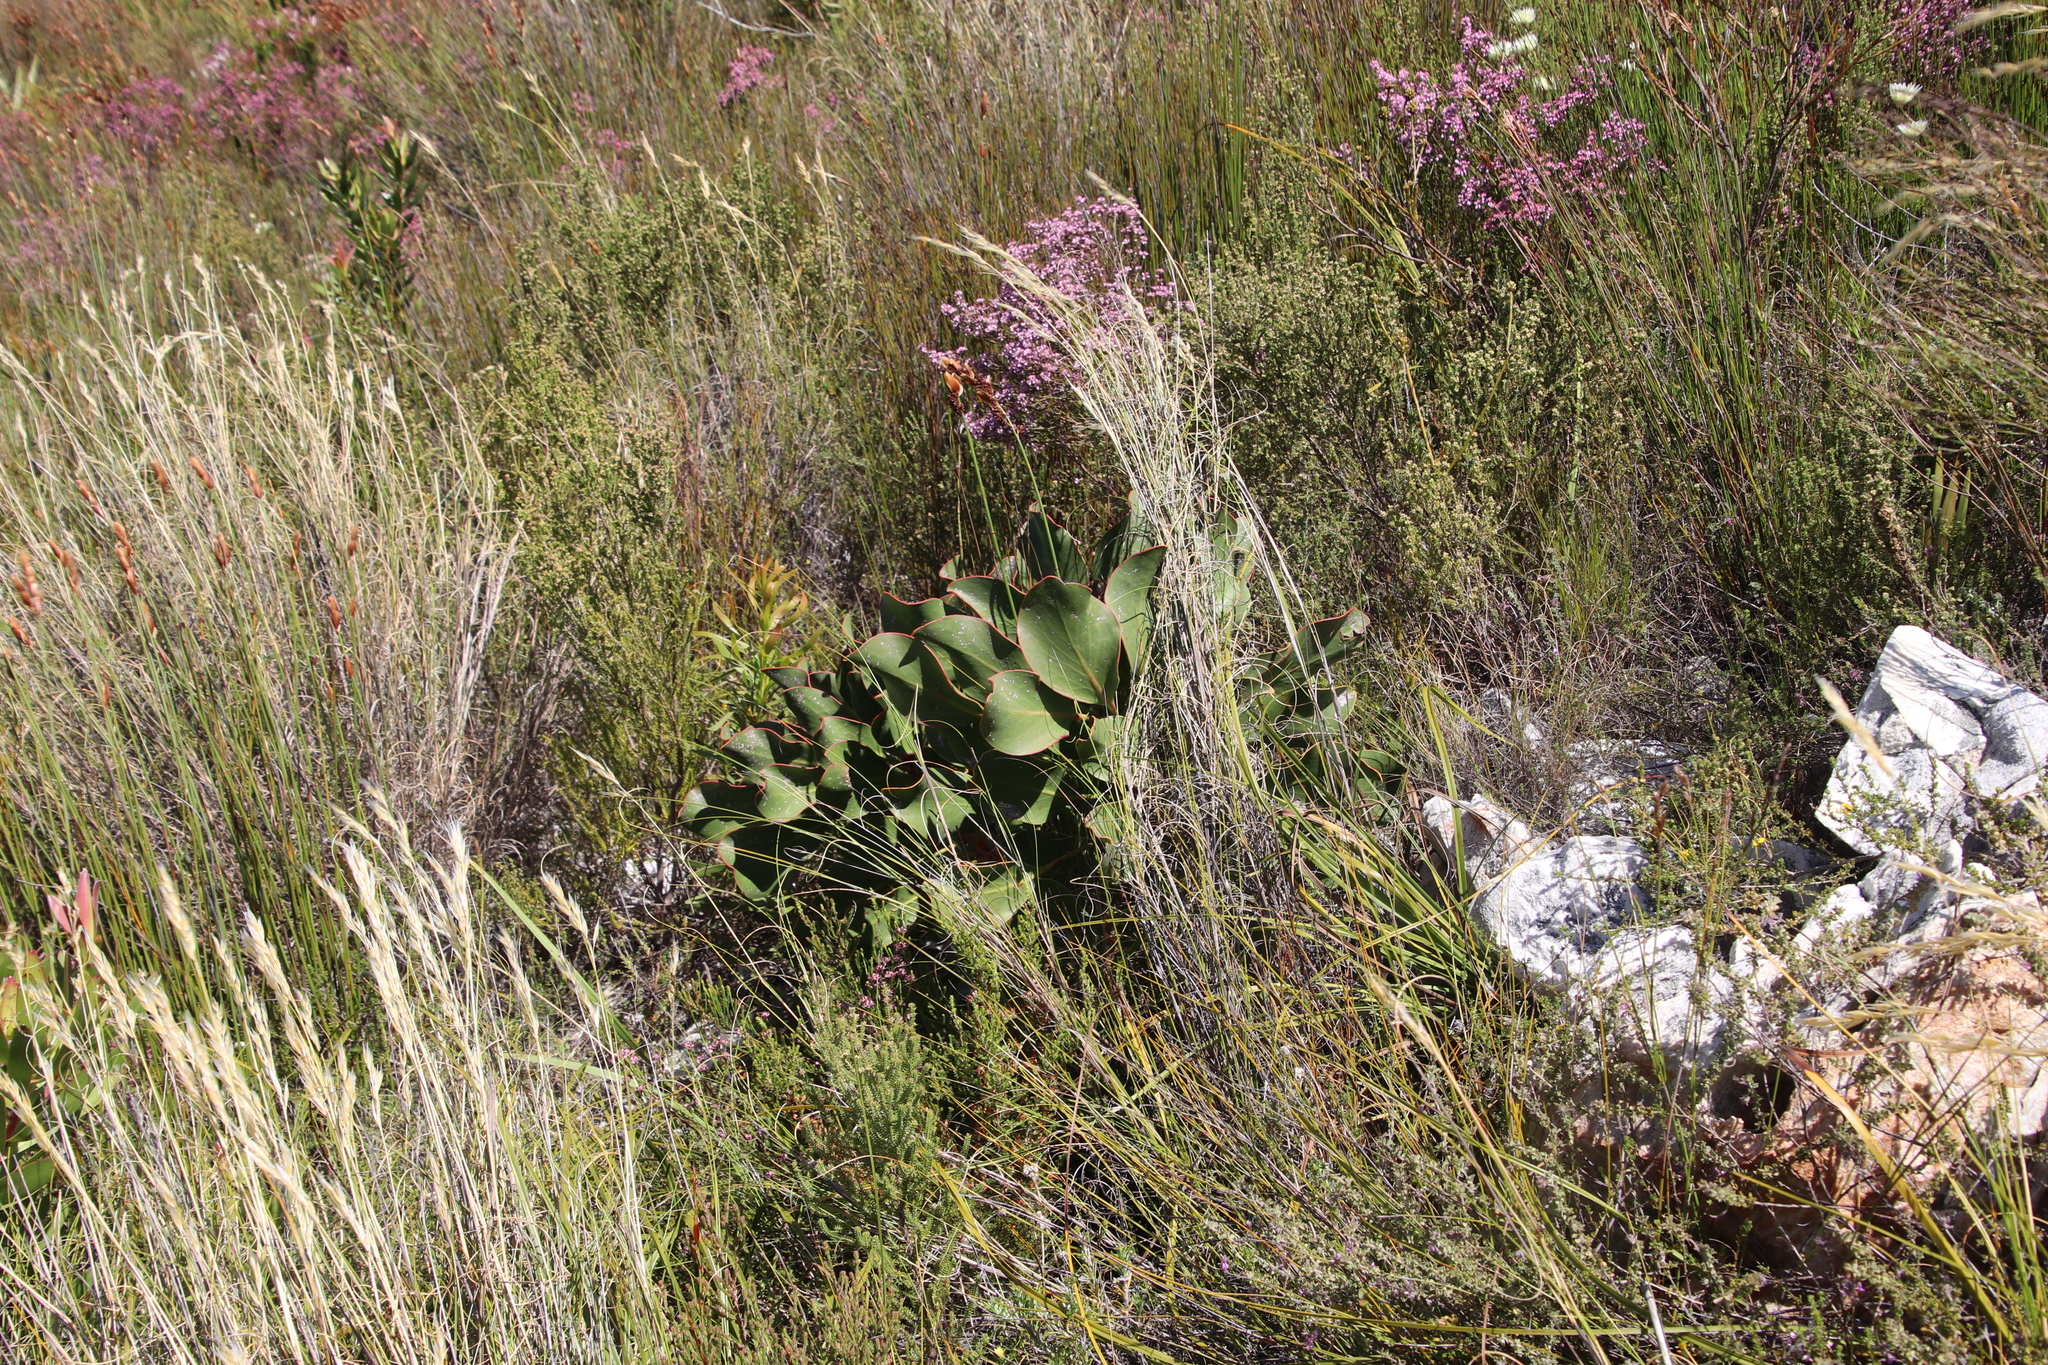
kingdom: Plantae
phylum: Tracheophyta
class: Magnoliopsida
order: Proteales
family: Proteaceae
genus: Protea
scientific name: Protea cynaroides
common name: King protea
